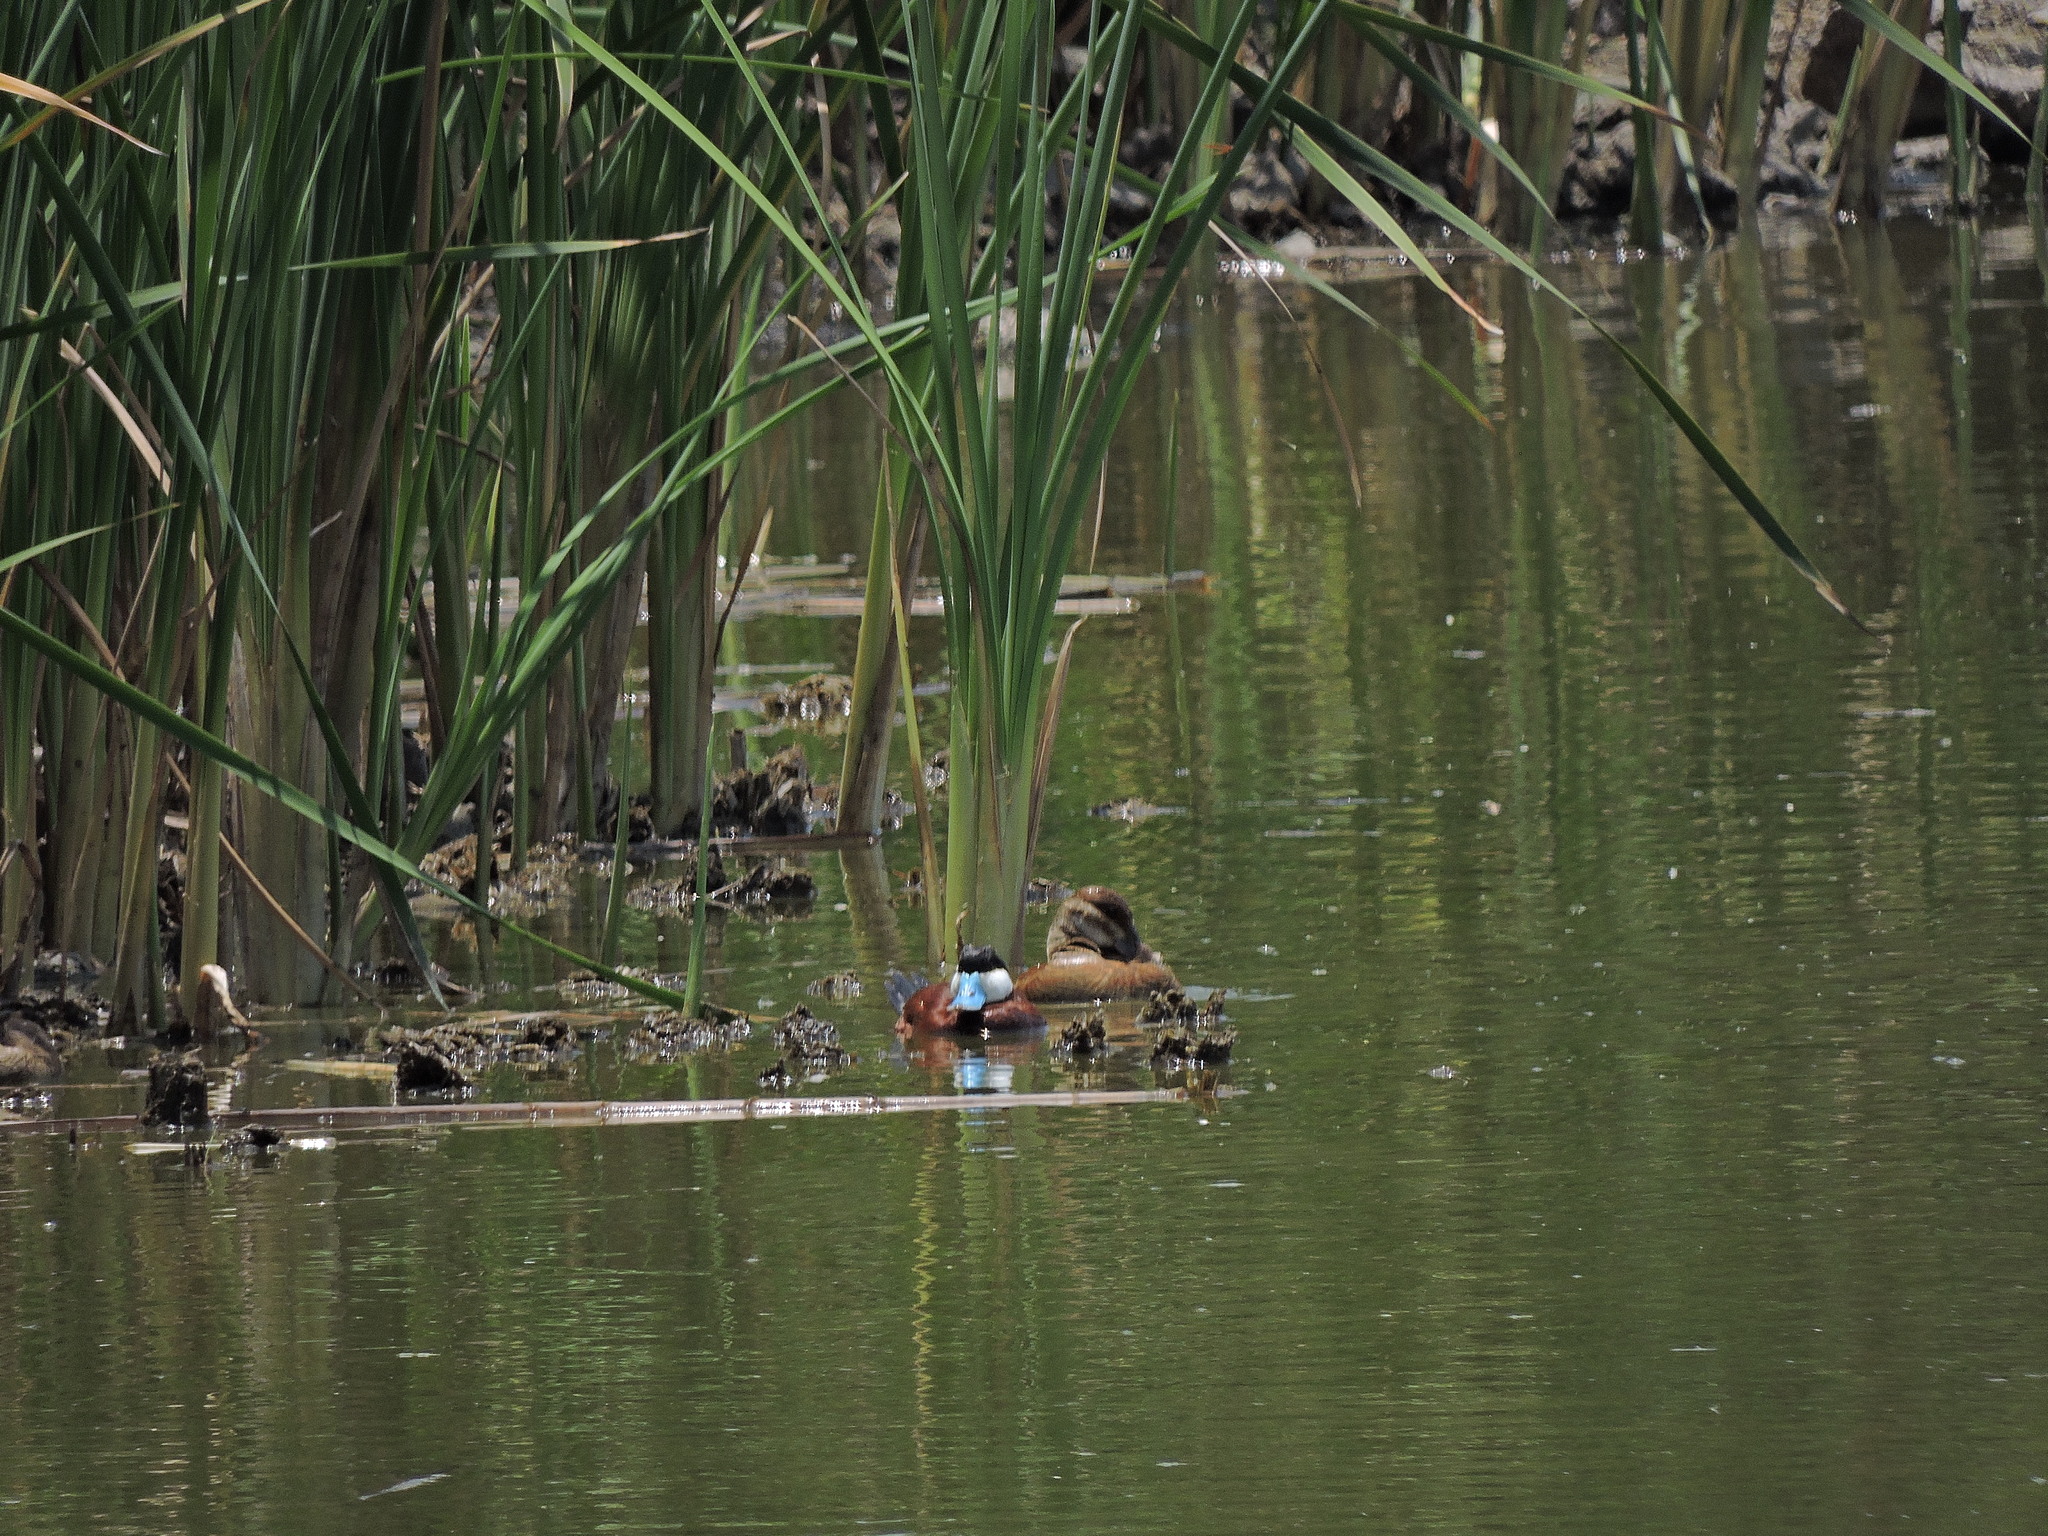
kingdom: Animalia
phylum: Chordata
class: Aves
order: Anseriformes
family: Anatidae
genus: Oxyura
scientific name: Oxyura jamaicensis
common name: Ruddy duck
